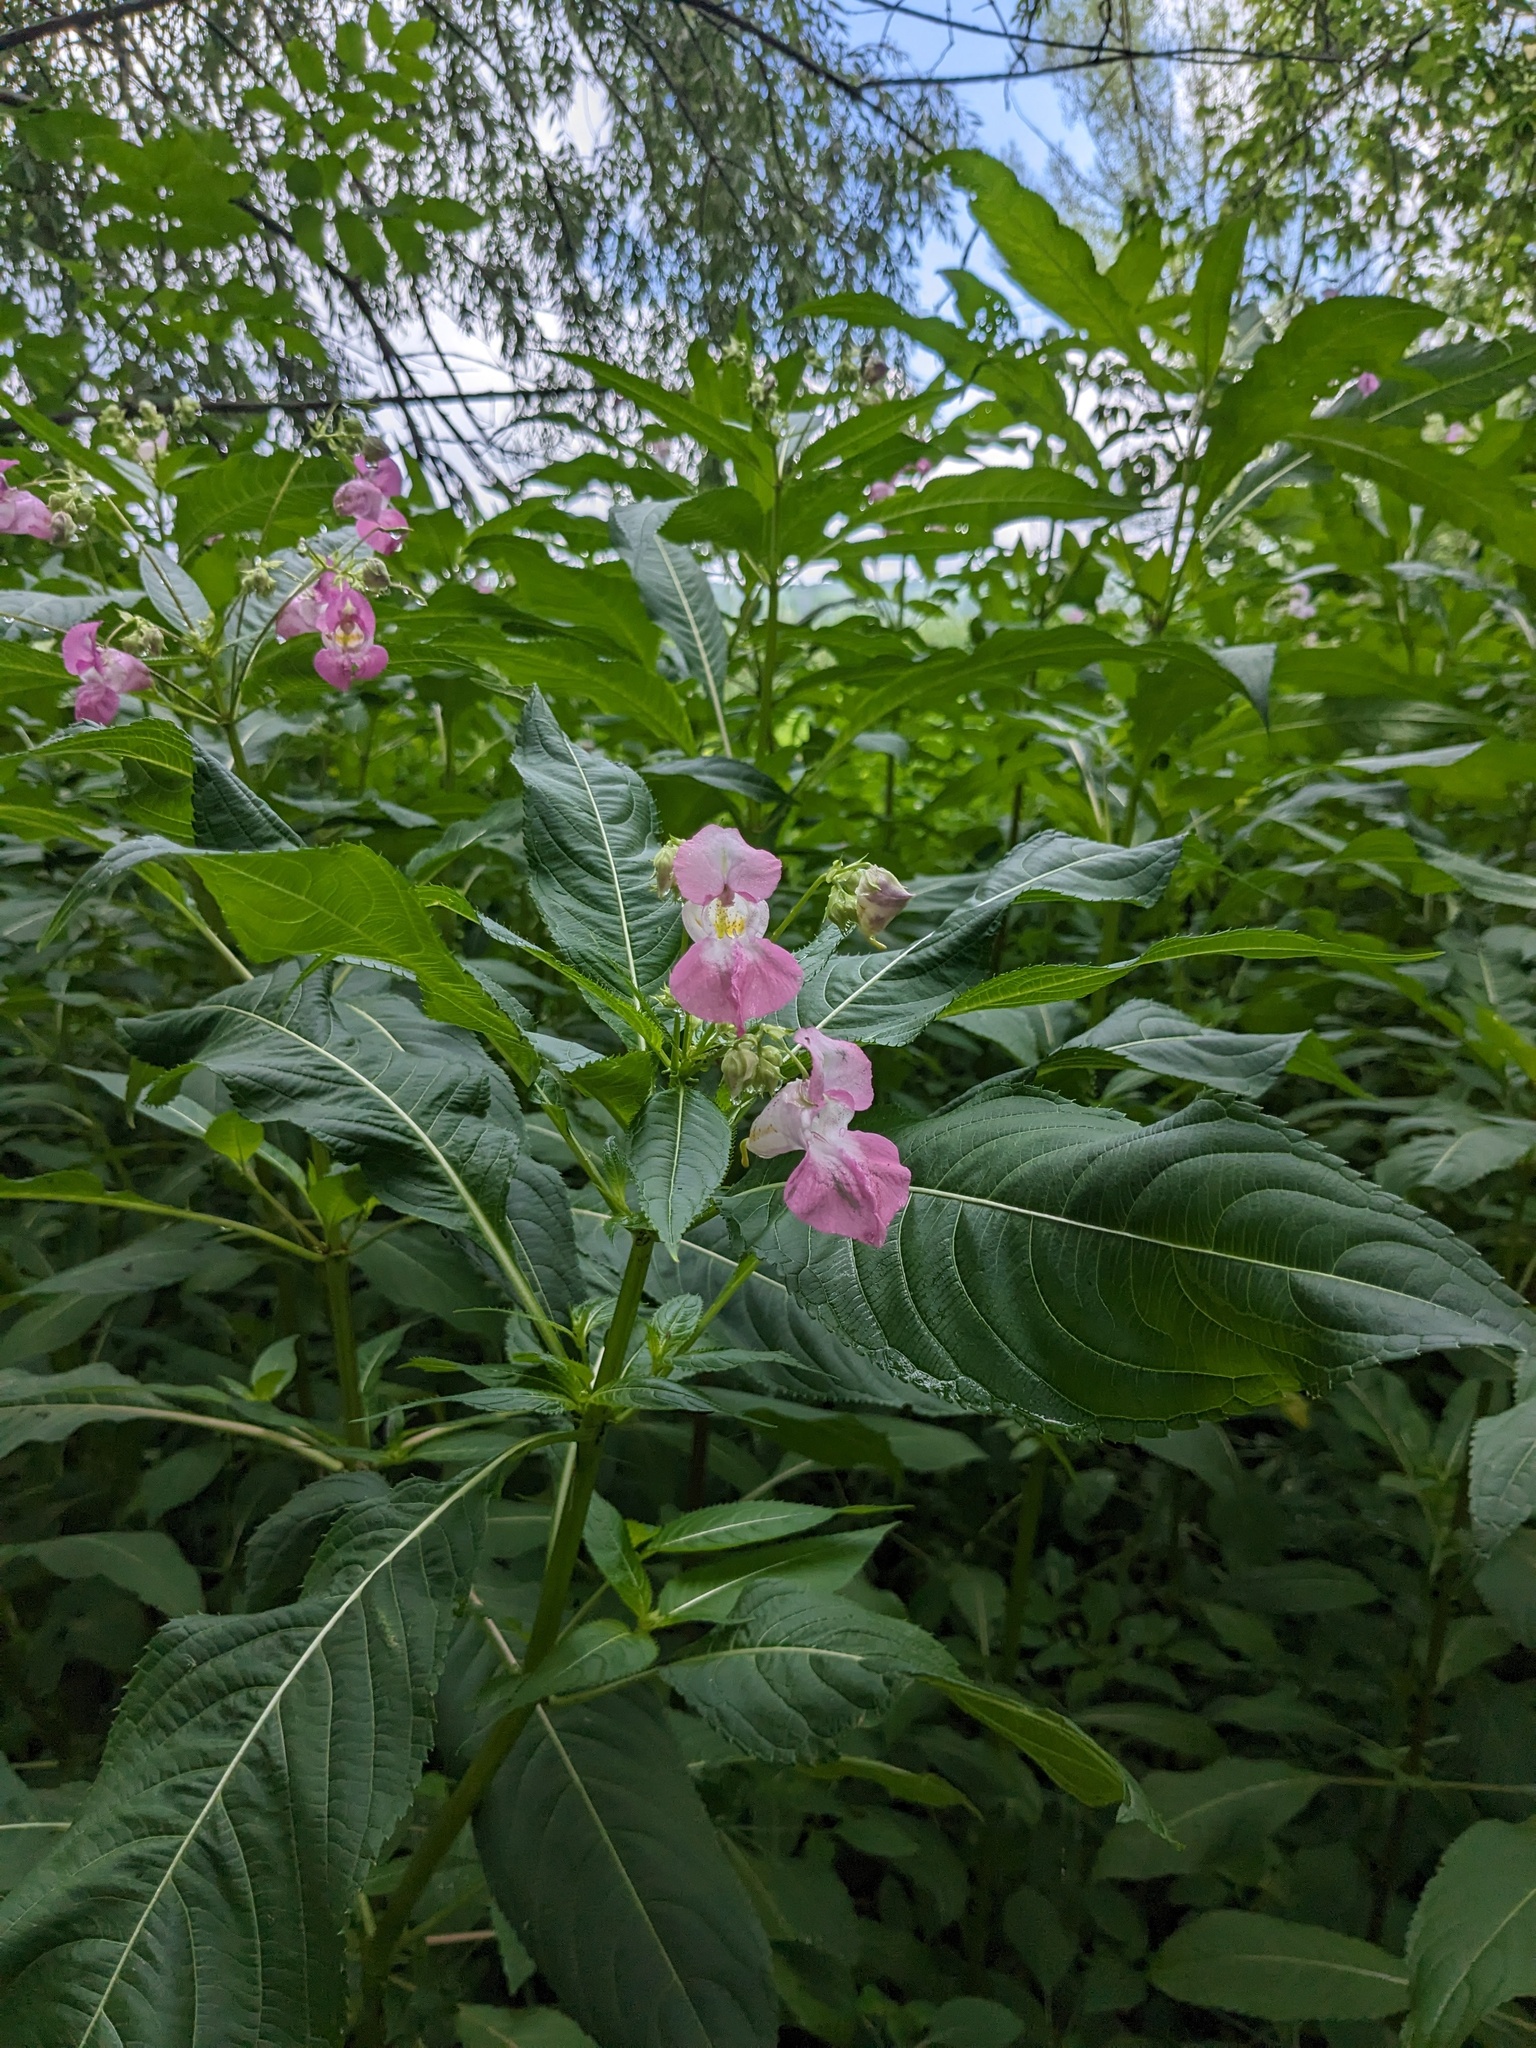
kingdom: Plantae
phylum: Tracheophyta
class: Magnoliopsida
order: Ericales
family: Balsaminaceae
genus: Impatiens
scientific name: Impatiens glandulifera
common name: Himalayan balsam
